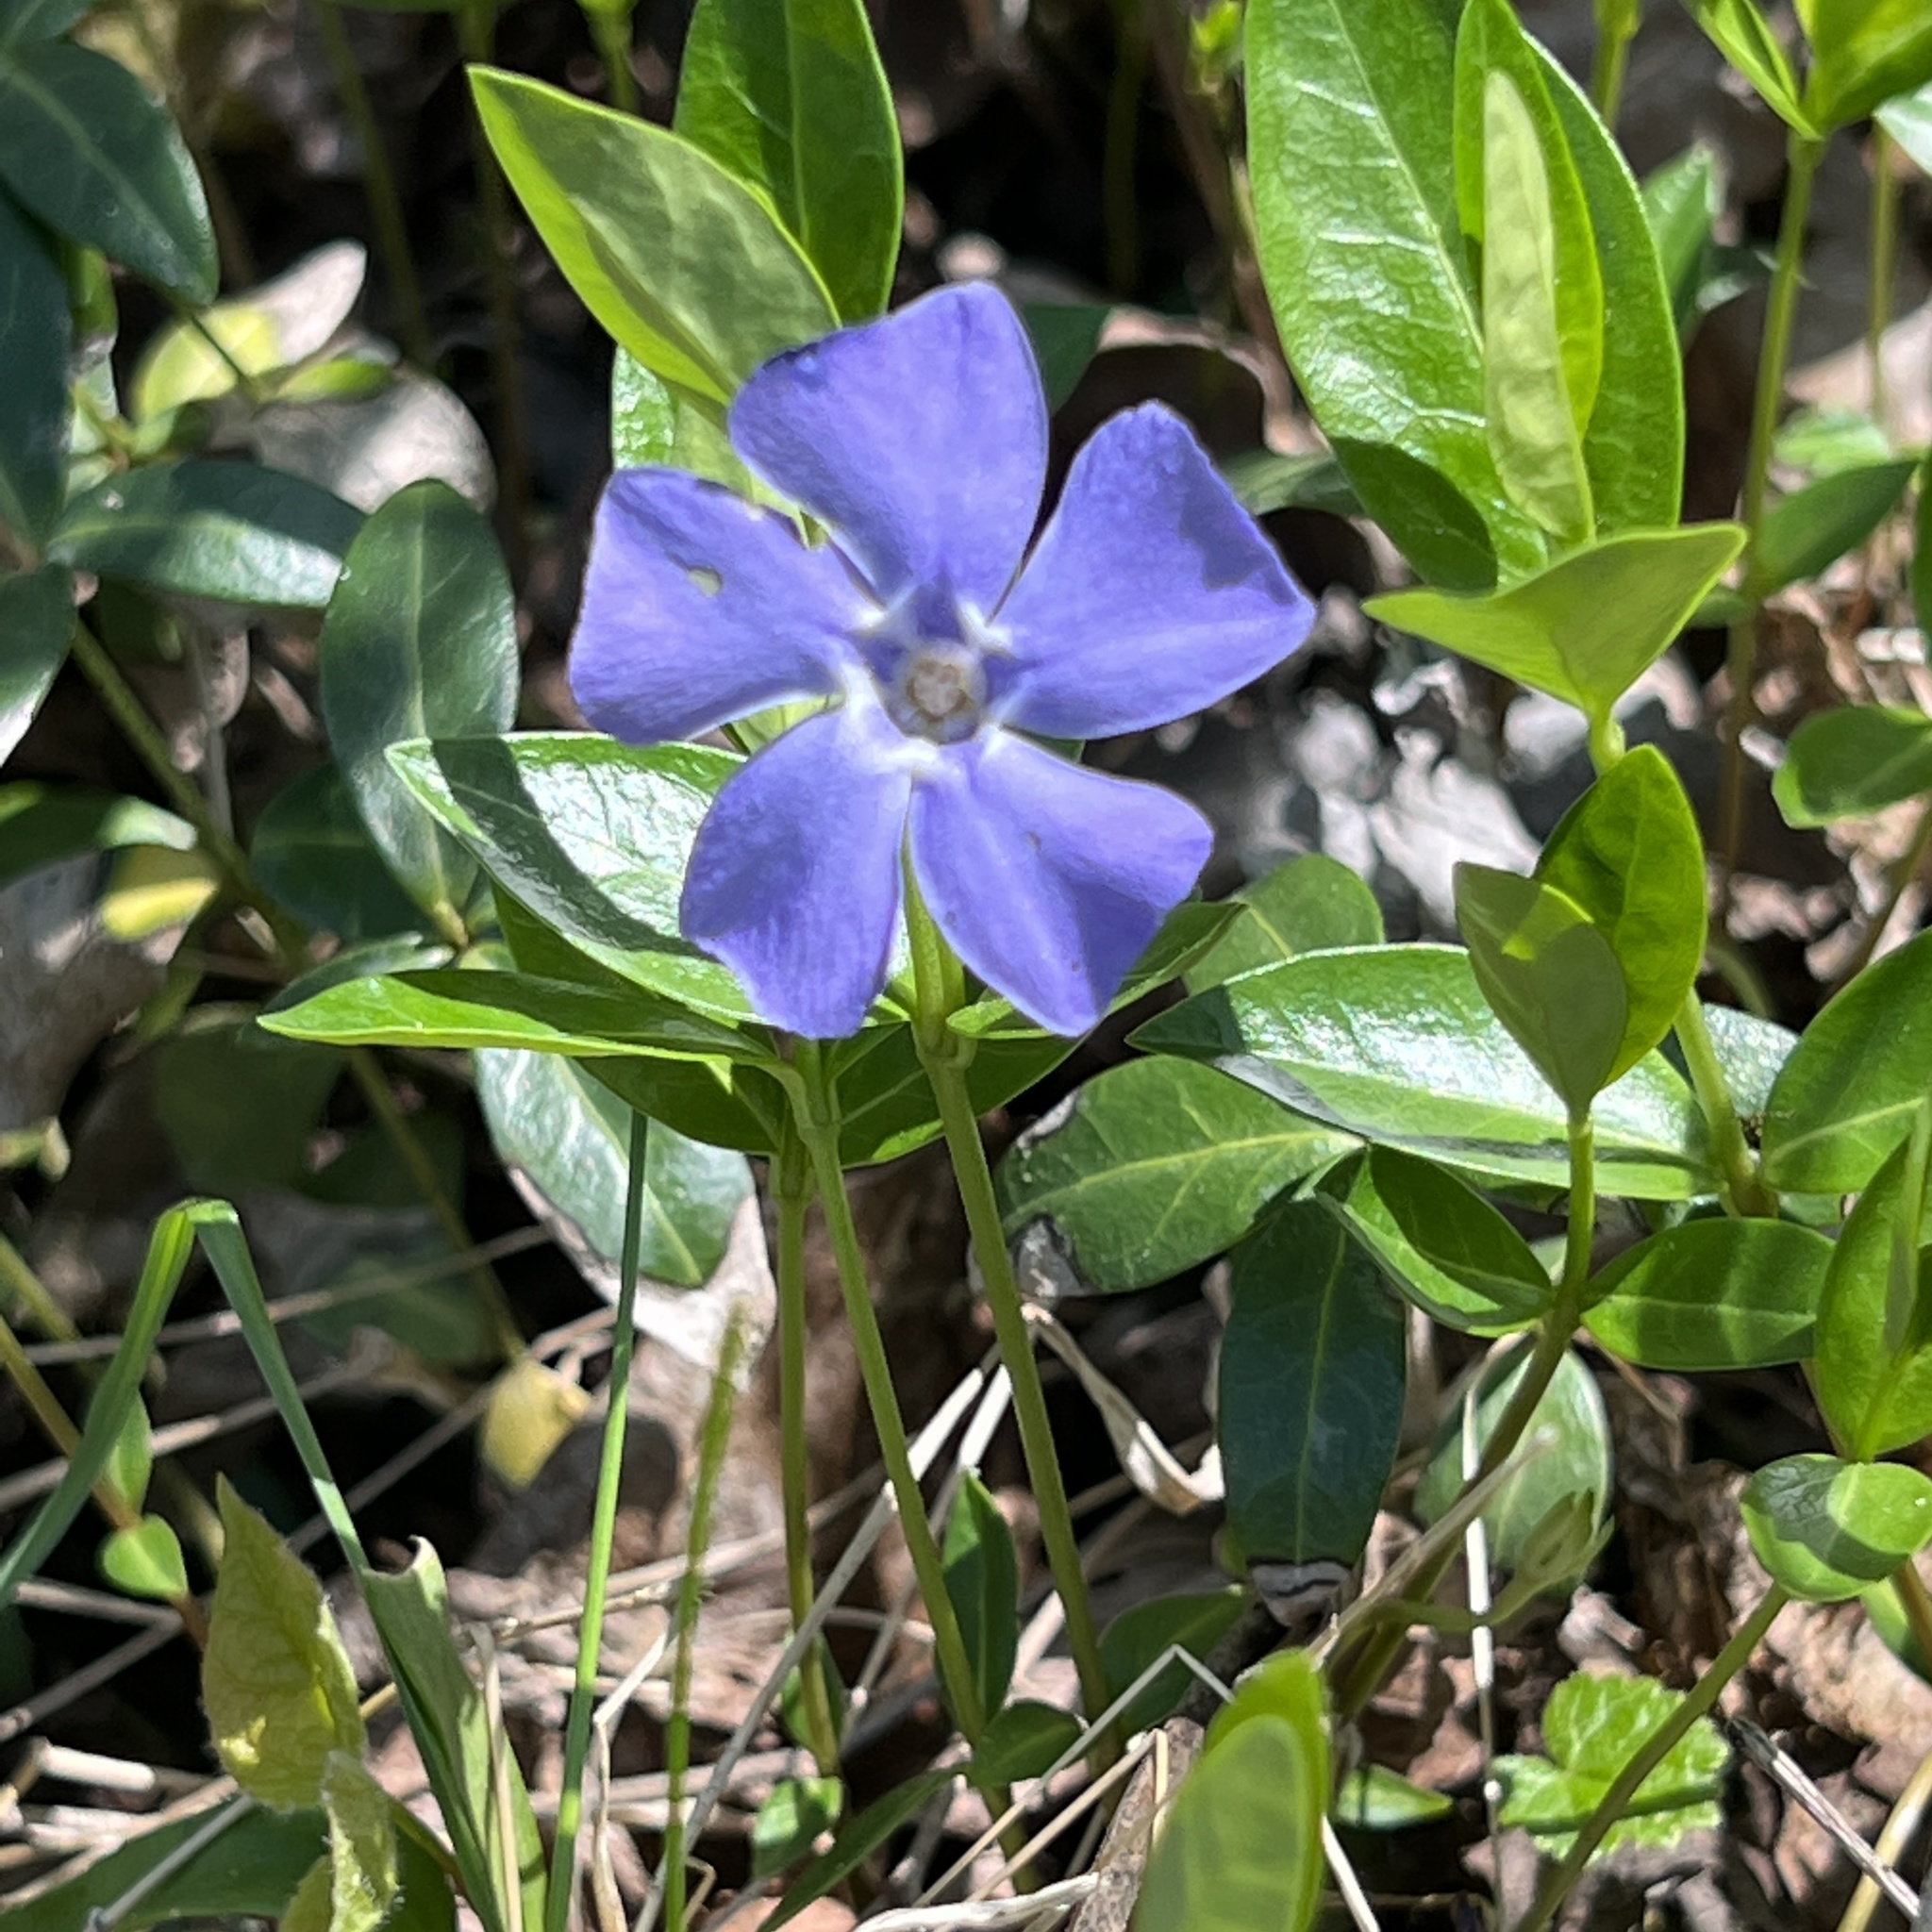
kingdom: Plantae
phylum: Tracheophyta
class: Magnoliopsida
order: Gentianales
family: Apocynaceae
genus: Vinca
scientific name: Vinca minor
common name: Lesser periwinkle
